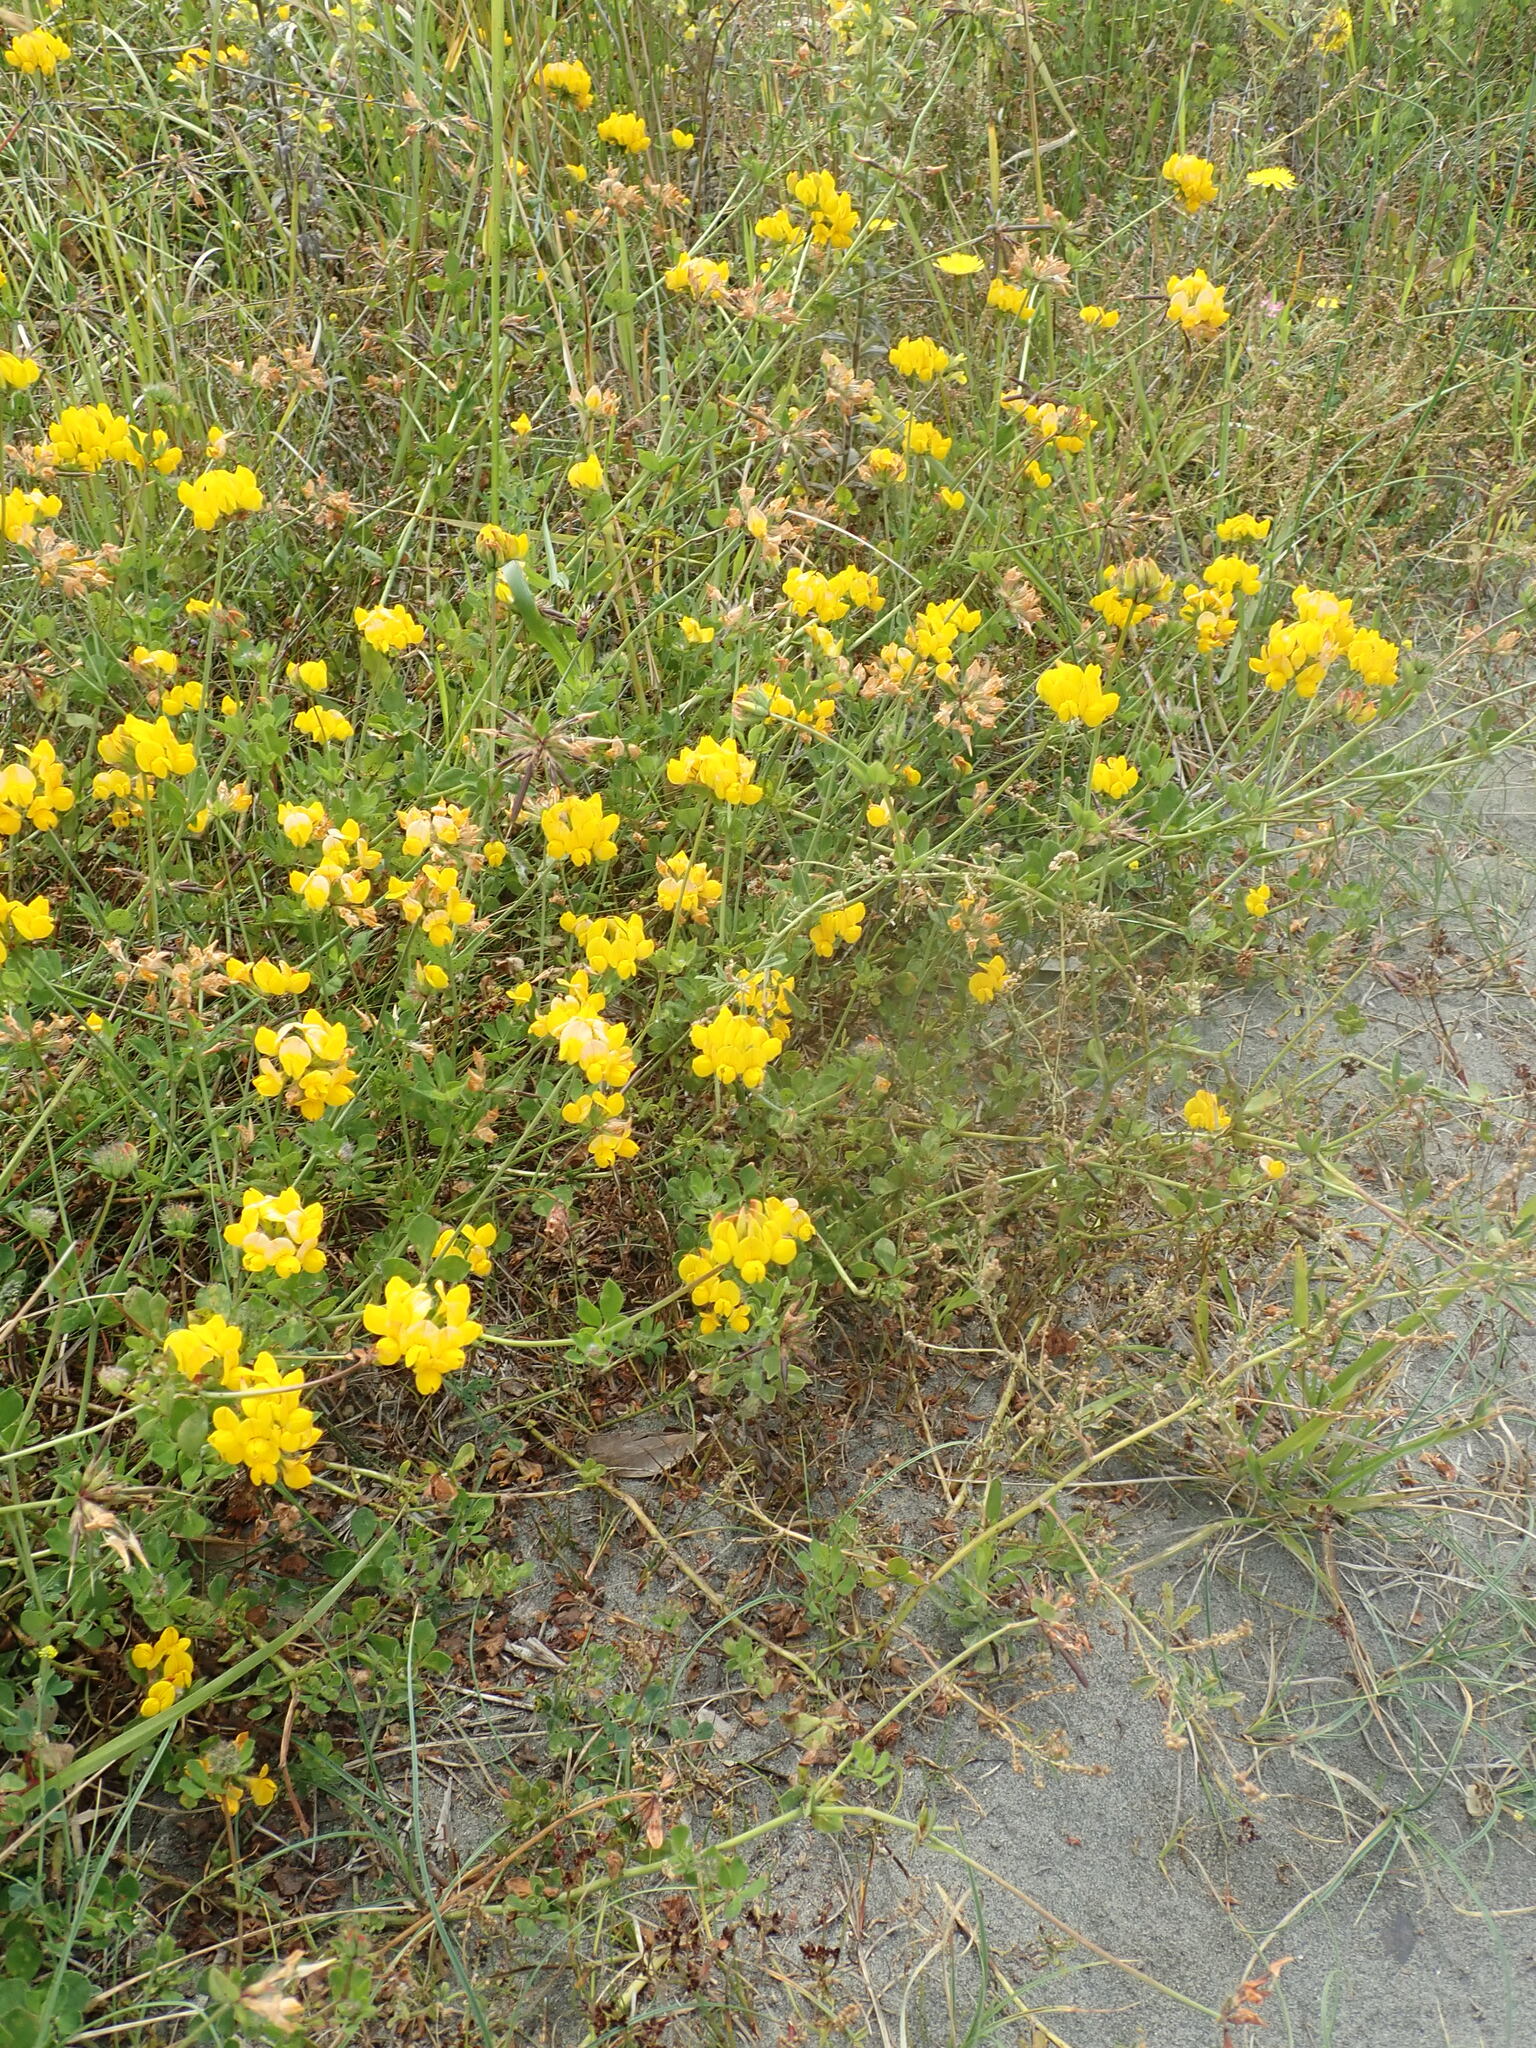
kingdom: Plantae
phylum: Tracheophyta
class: Magnoliopsida
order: Fabales
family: Fabaceae
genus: Lotus
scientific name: Lotus pedunculatus
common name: Greater birdsfoot-trefoil
